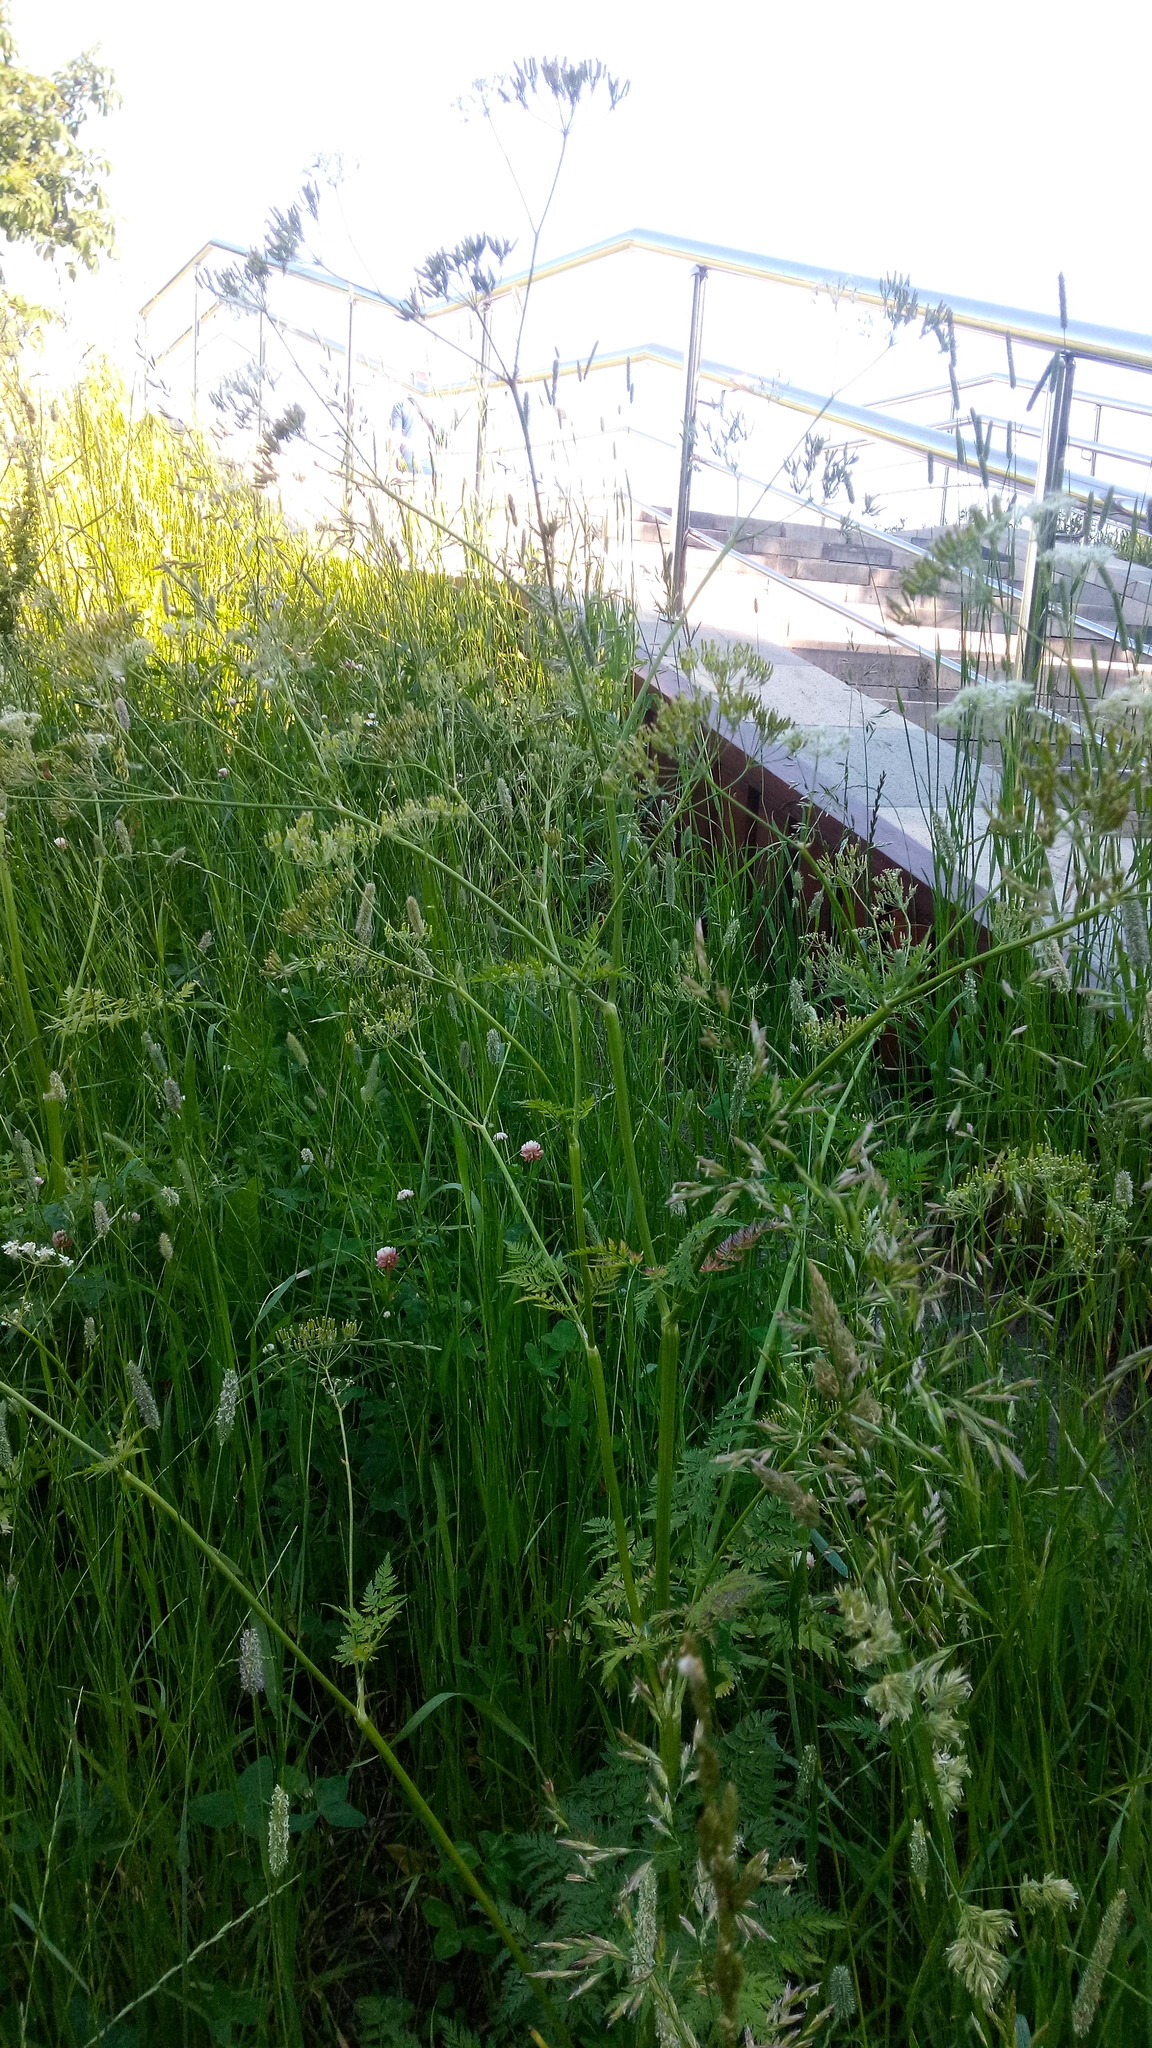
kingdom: Plantae
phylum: Tracheophyta
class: Magnoliopsida
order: Apiales
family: Apiaceae
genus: Anthriscus
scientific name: Anthriscus sylvestris
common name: Cow parsley
